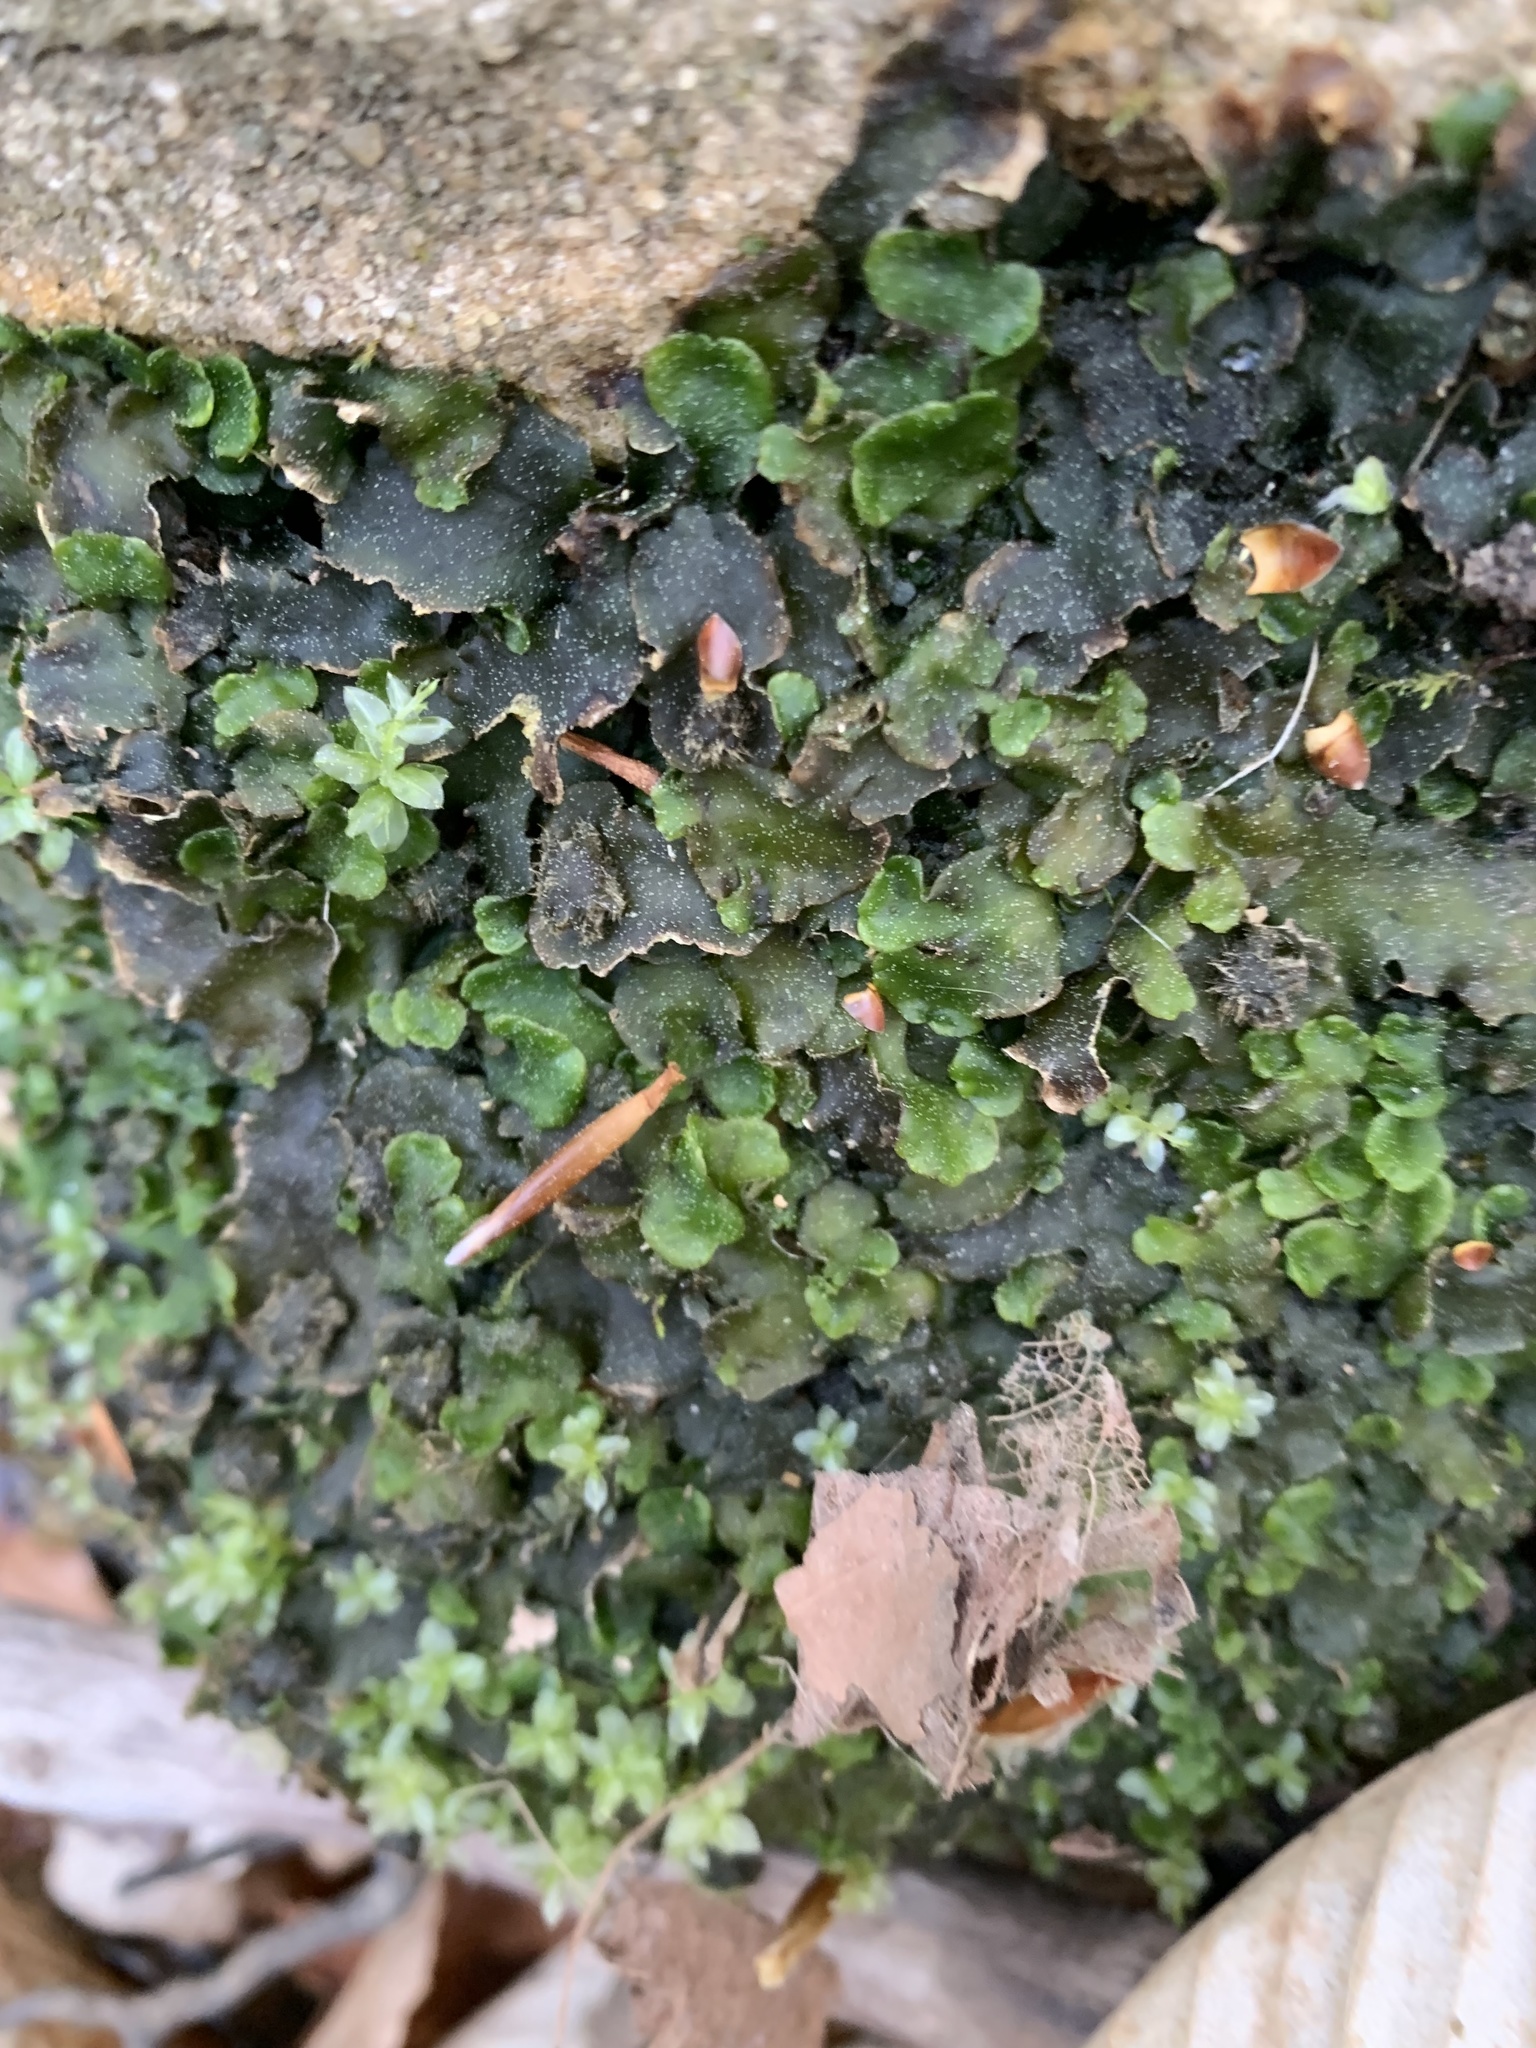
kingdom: Plantae
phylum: Marchantiophyta
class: Marchantiopsida
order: Marchantiales
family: Dumortieraceae
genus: Dumortiera
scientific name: Dumortiera hirsuta
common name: Dumortier's liverwort
